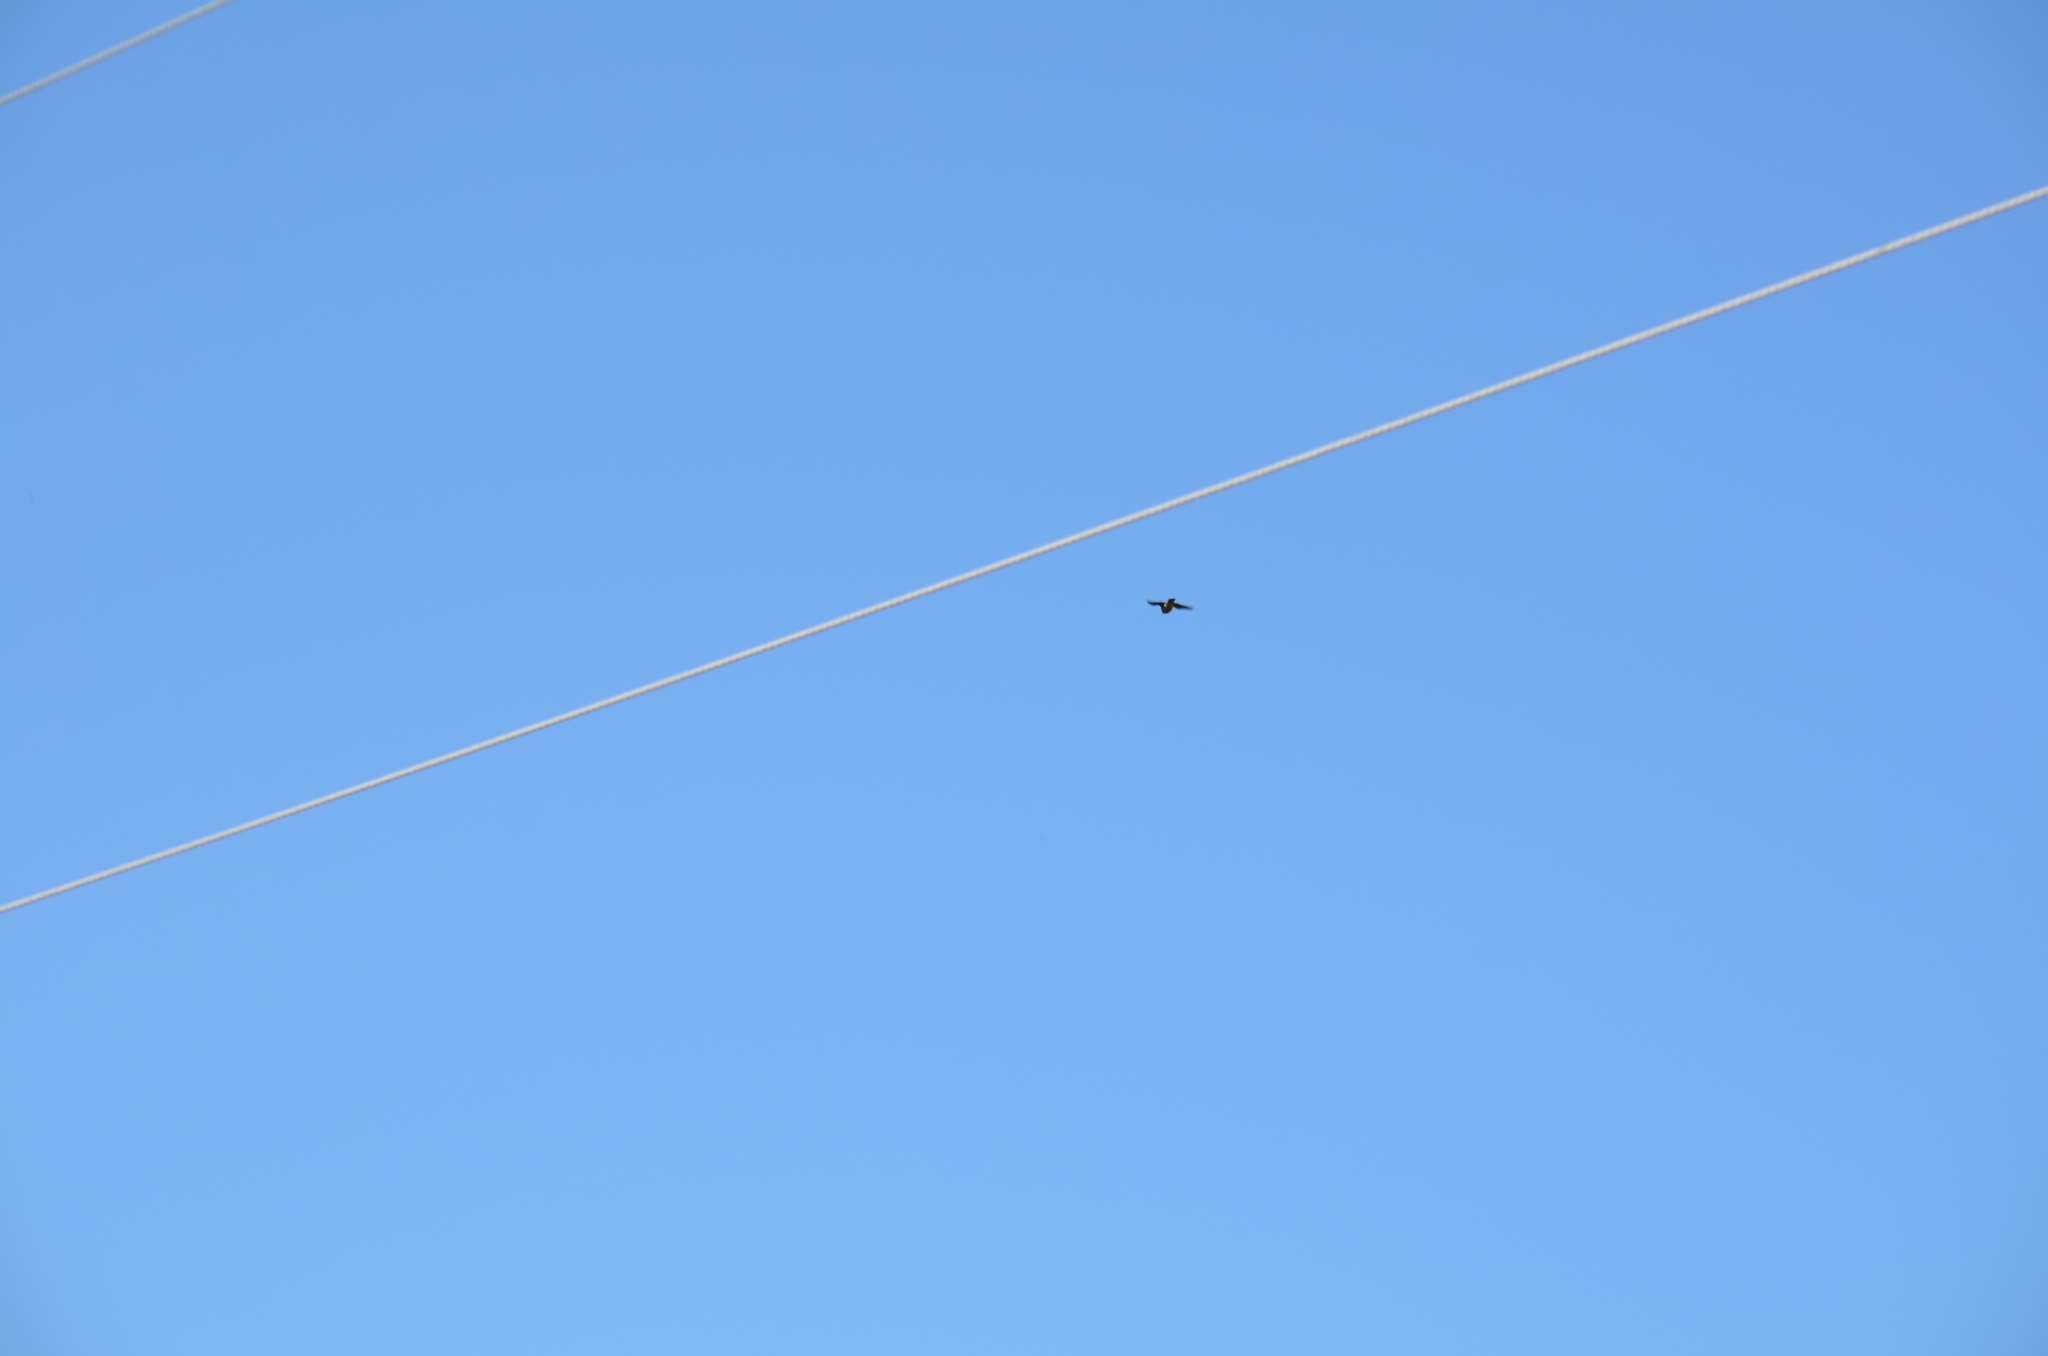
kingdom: Animalia
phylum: Chordata
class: Aves
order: Falconiformes
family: Falconidae
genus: Falco
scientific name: Falco columbarius
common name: Merlin
